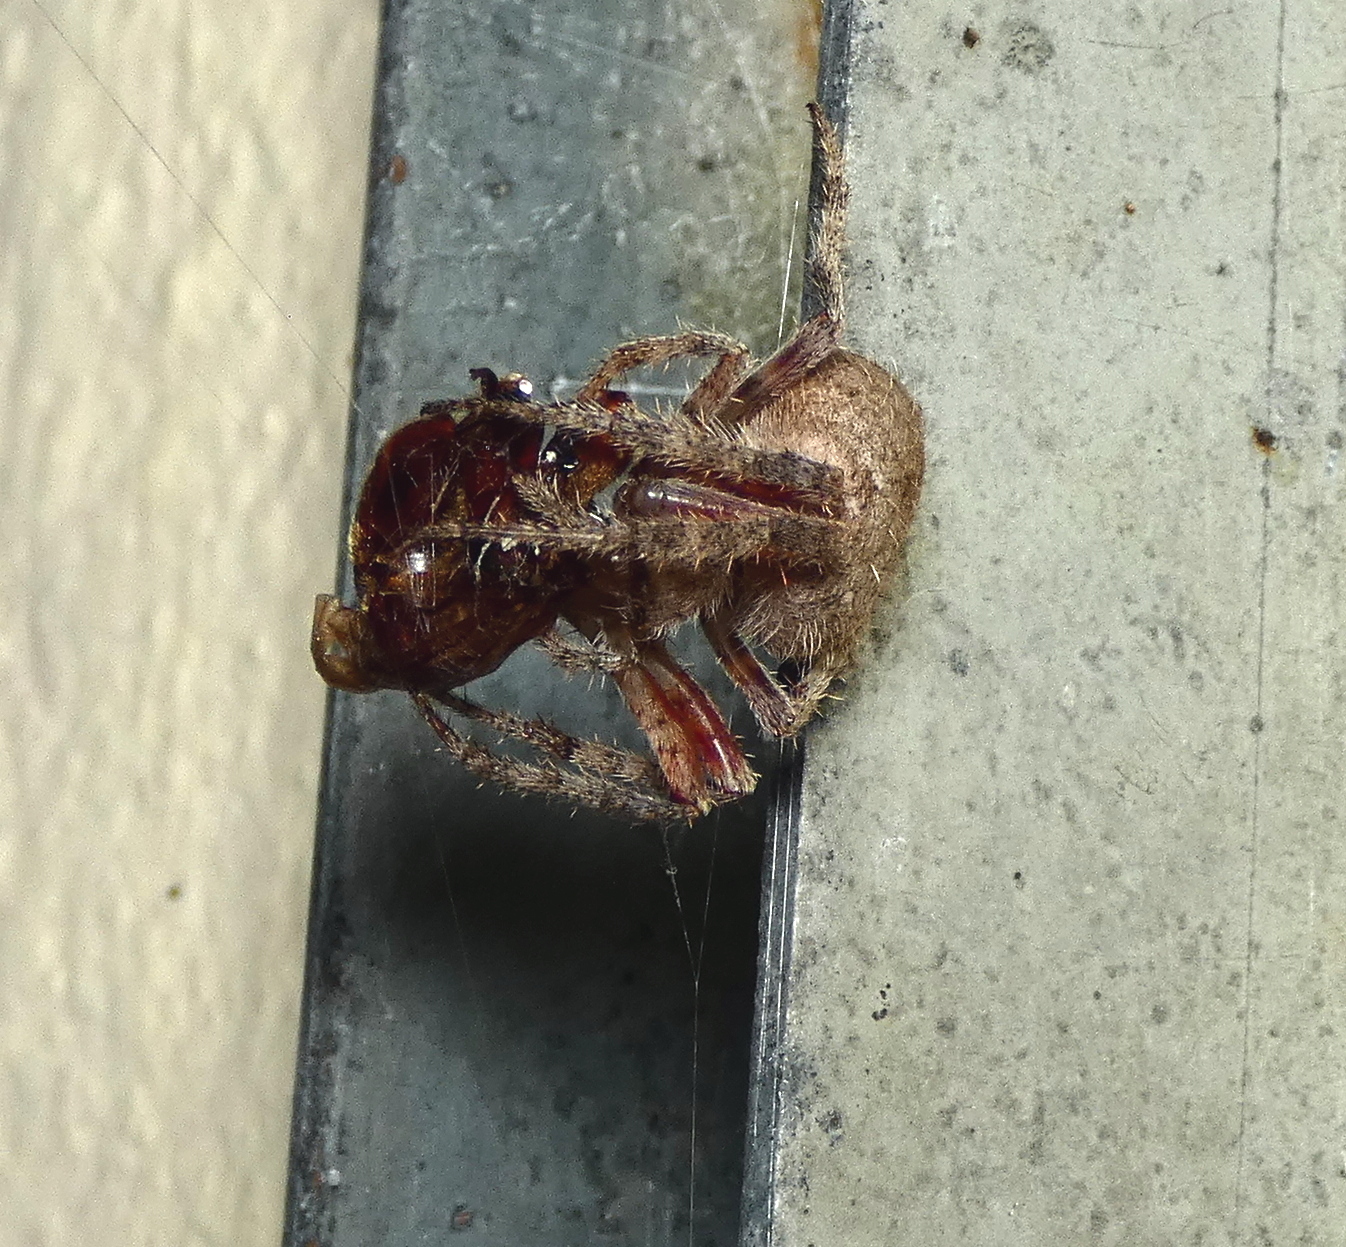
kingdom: Animalia
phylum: Arthropoda
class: Arachnida
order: Araneae
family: Araneidae
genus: Eriophora
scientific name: Eriophora edax
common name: Orb weavers
